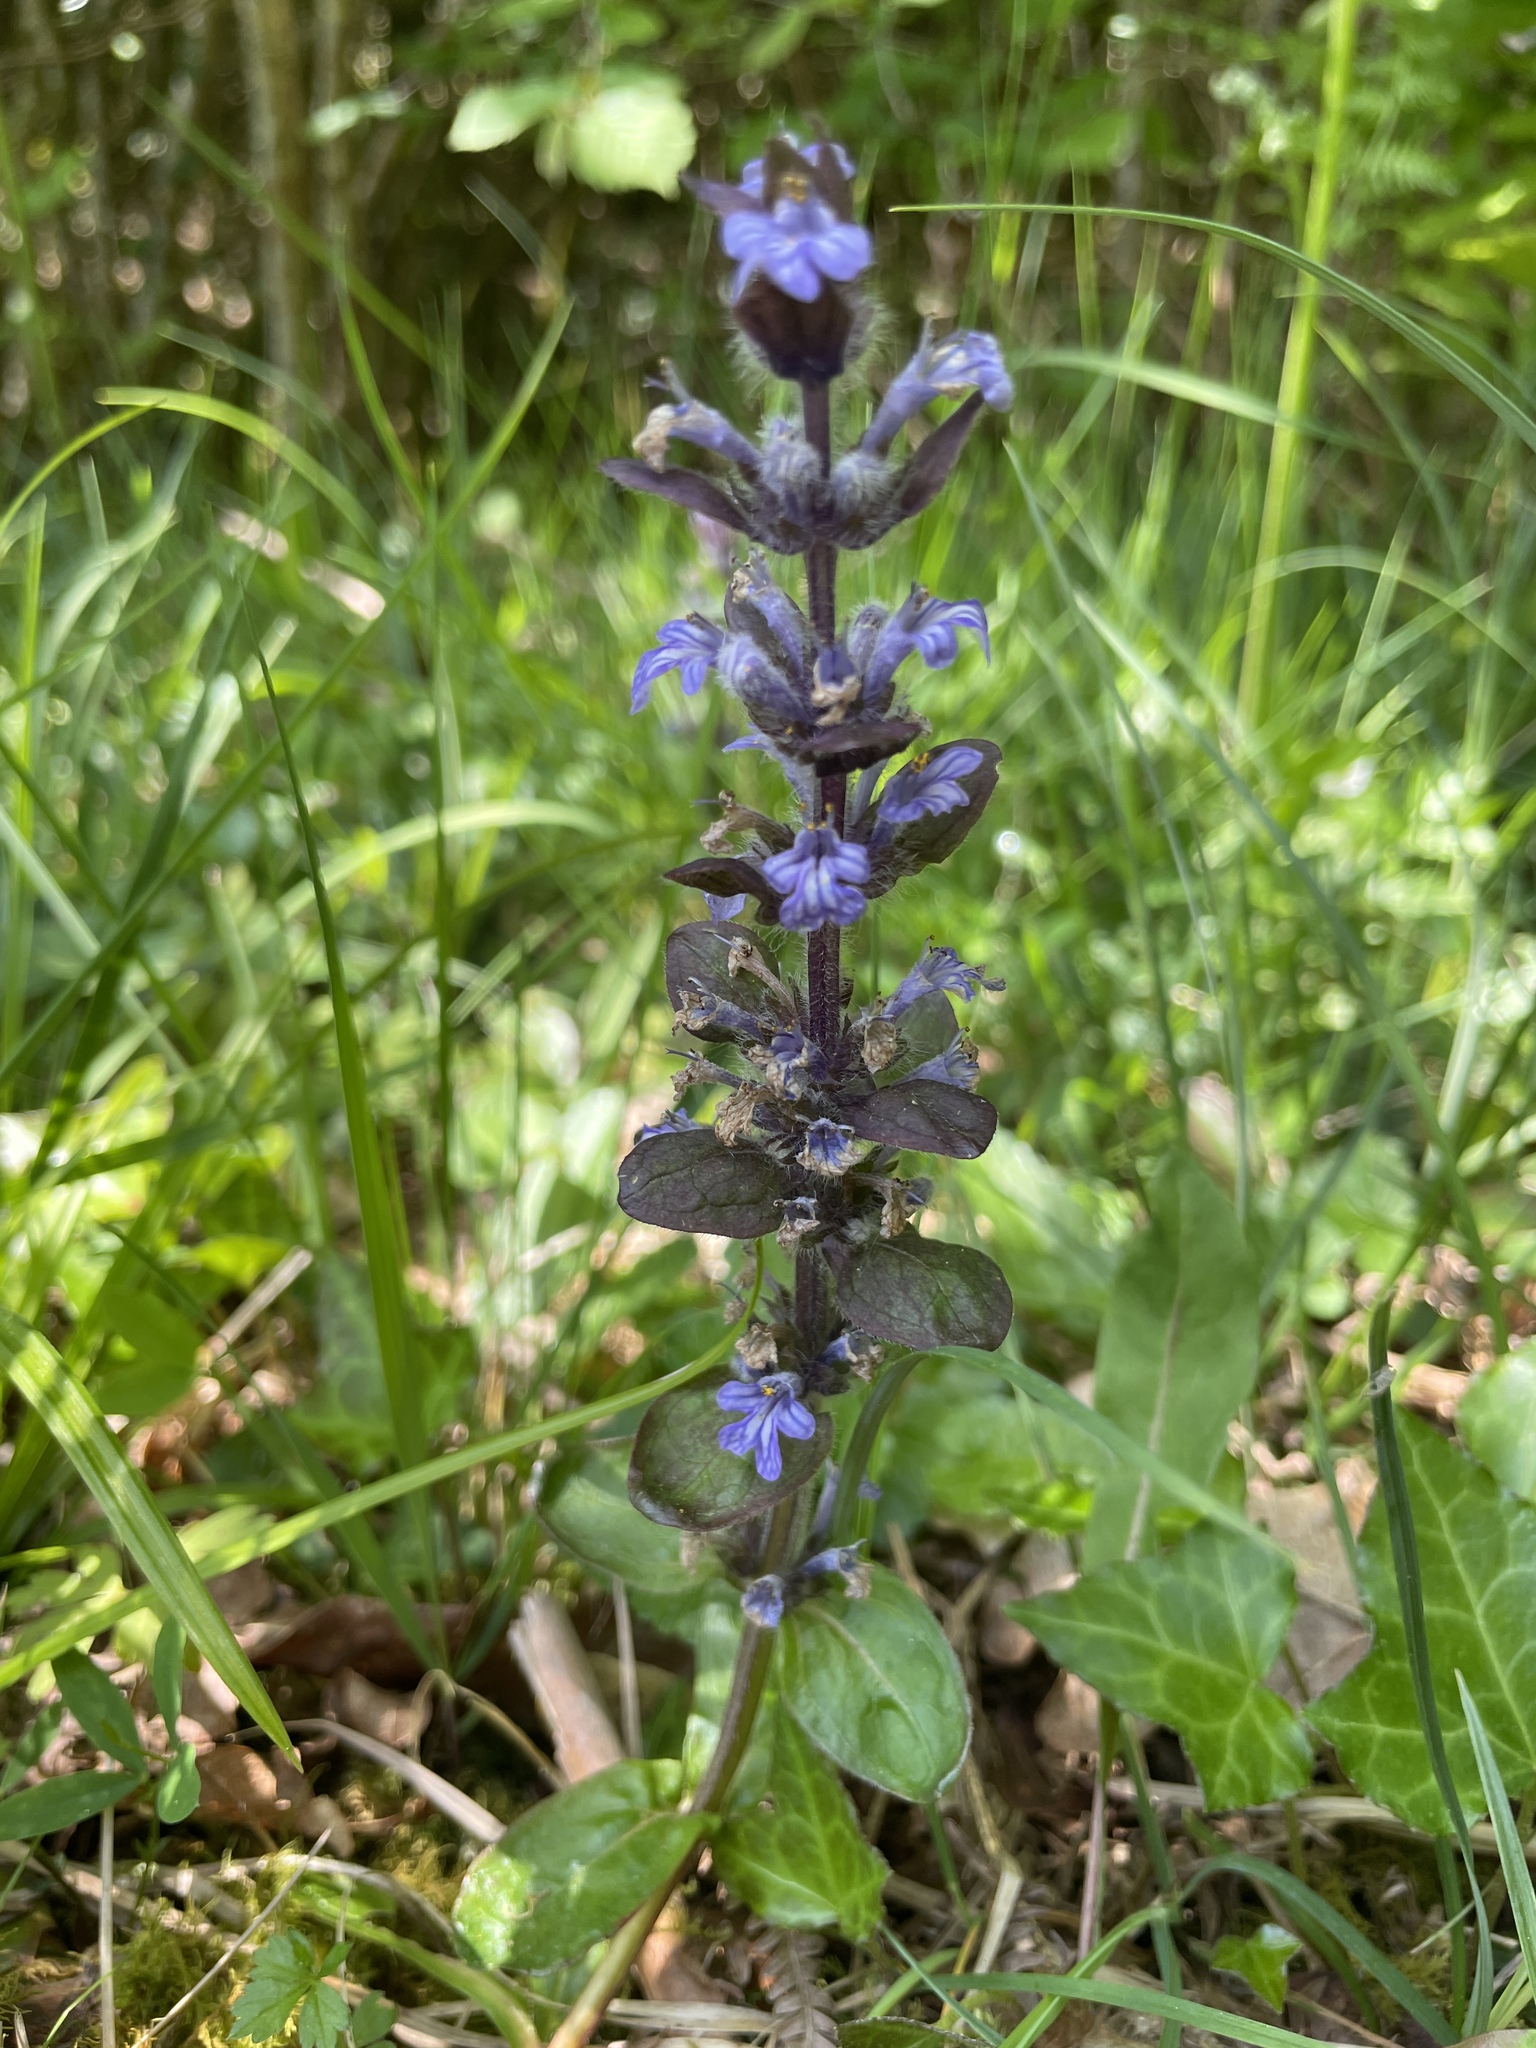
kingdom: Plantae
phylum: Tracheophyta
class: Magnoliopsida
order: Lamiales
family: Lamiaceae
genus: Ajuga
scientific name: Ajuga reptans
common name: Bugle
